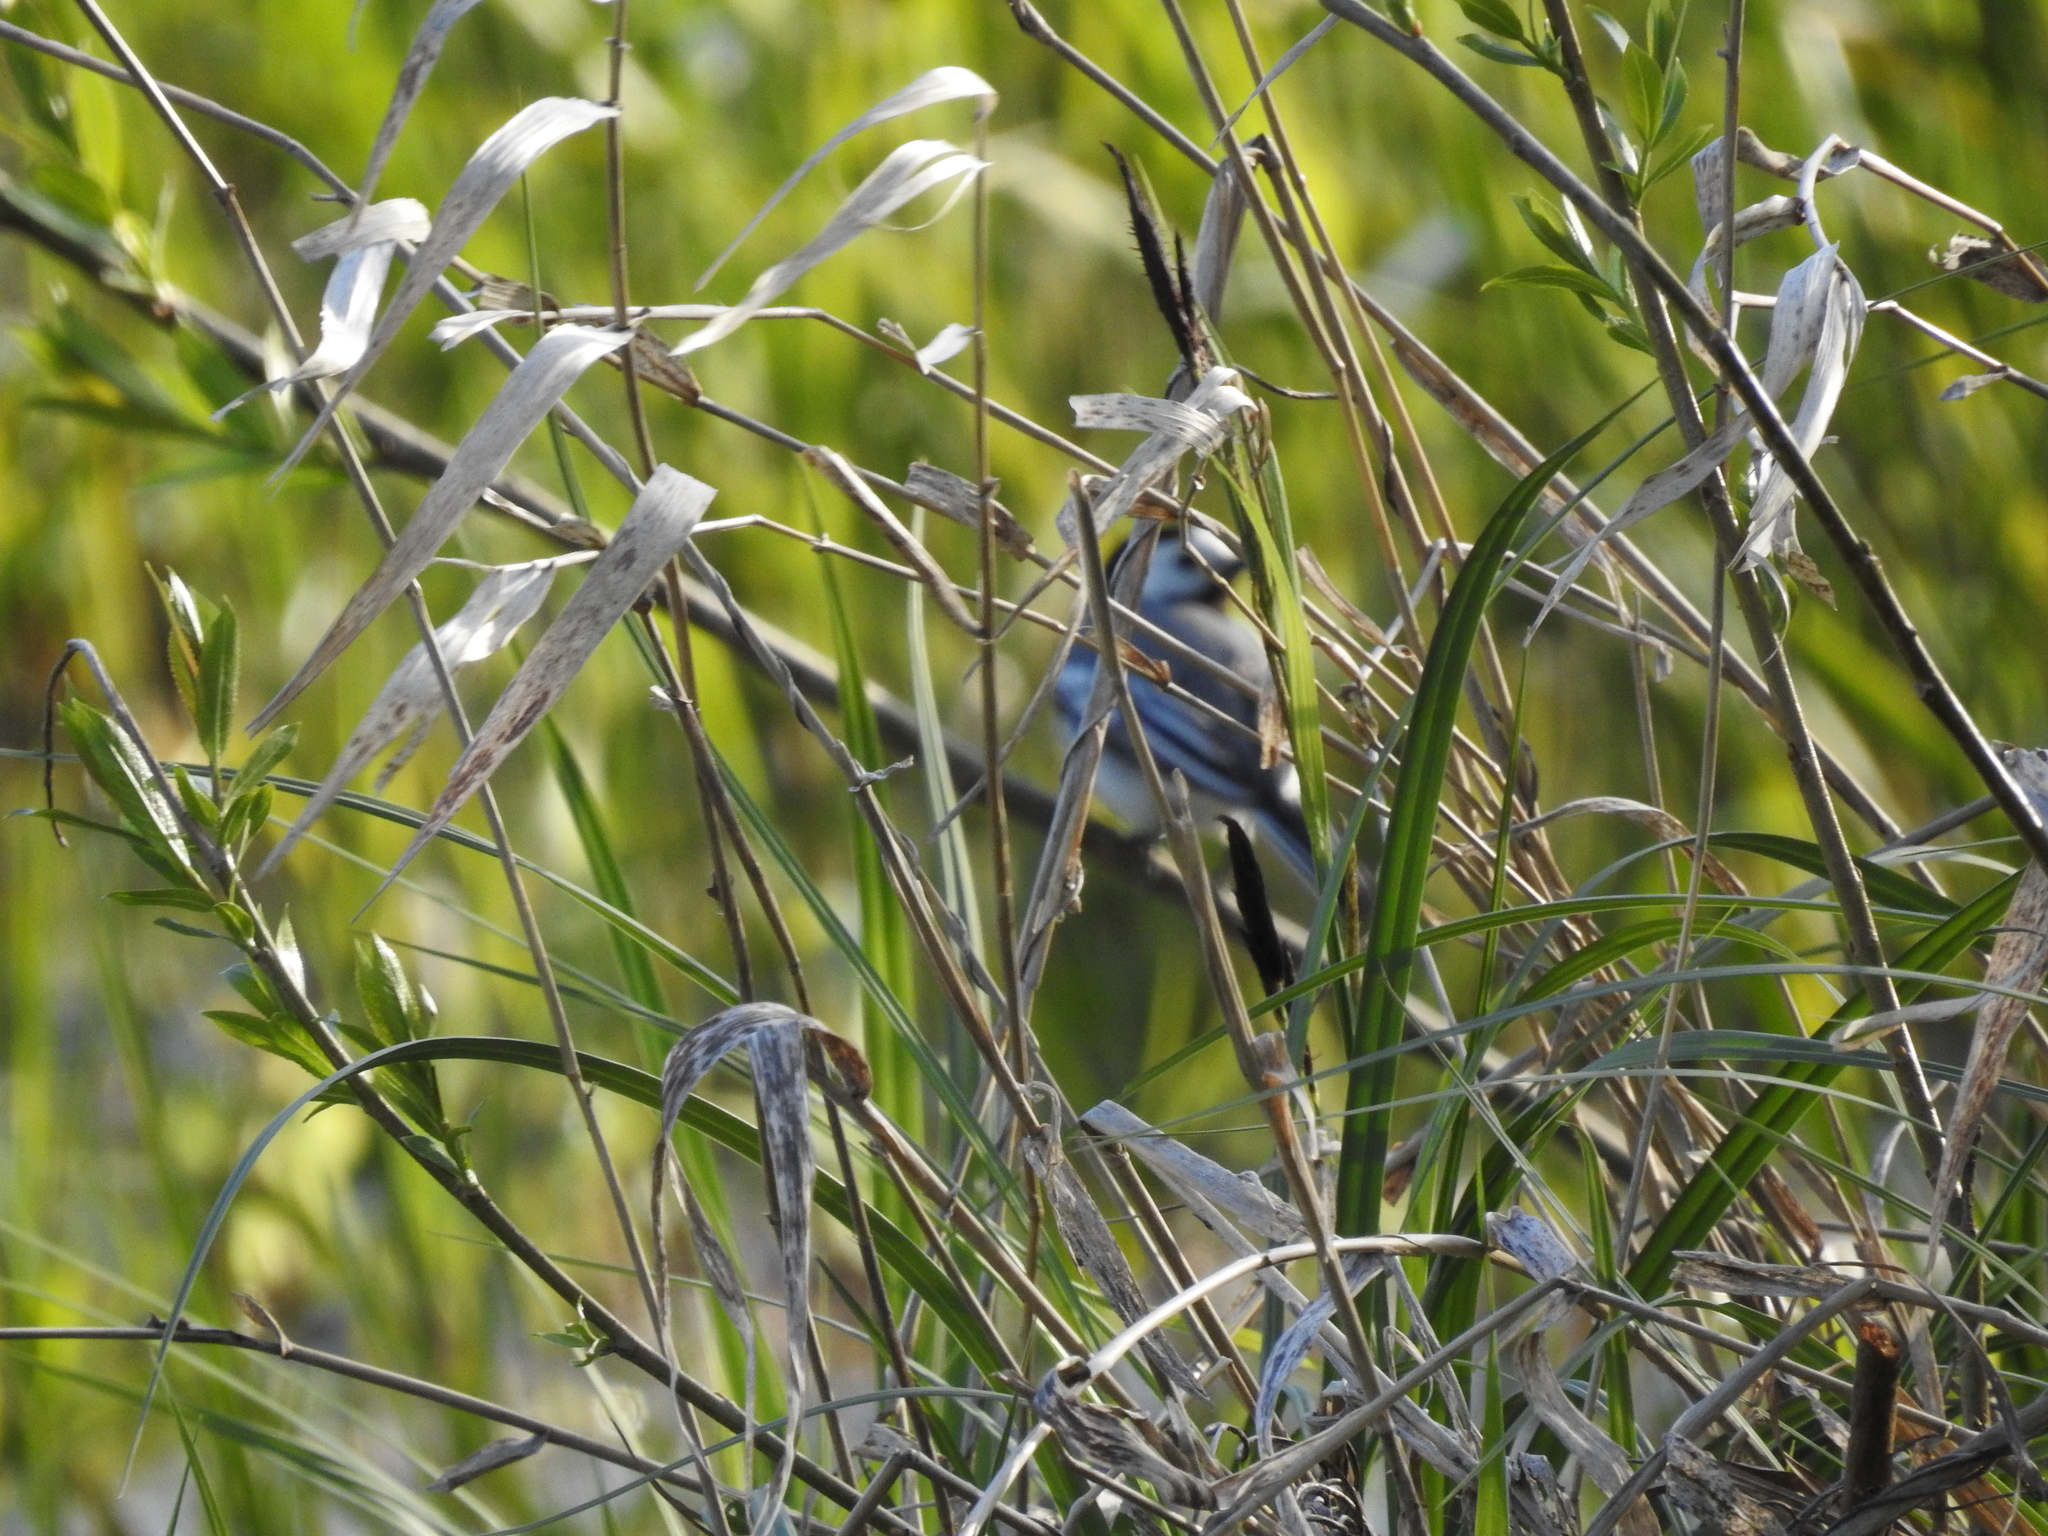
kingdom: Animalia
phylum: Chordata
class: Aves
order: Passeriformes
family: Motacillidae
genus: Motacilla
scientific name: Motacilla alba
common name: White wagtail
